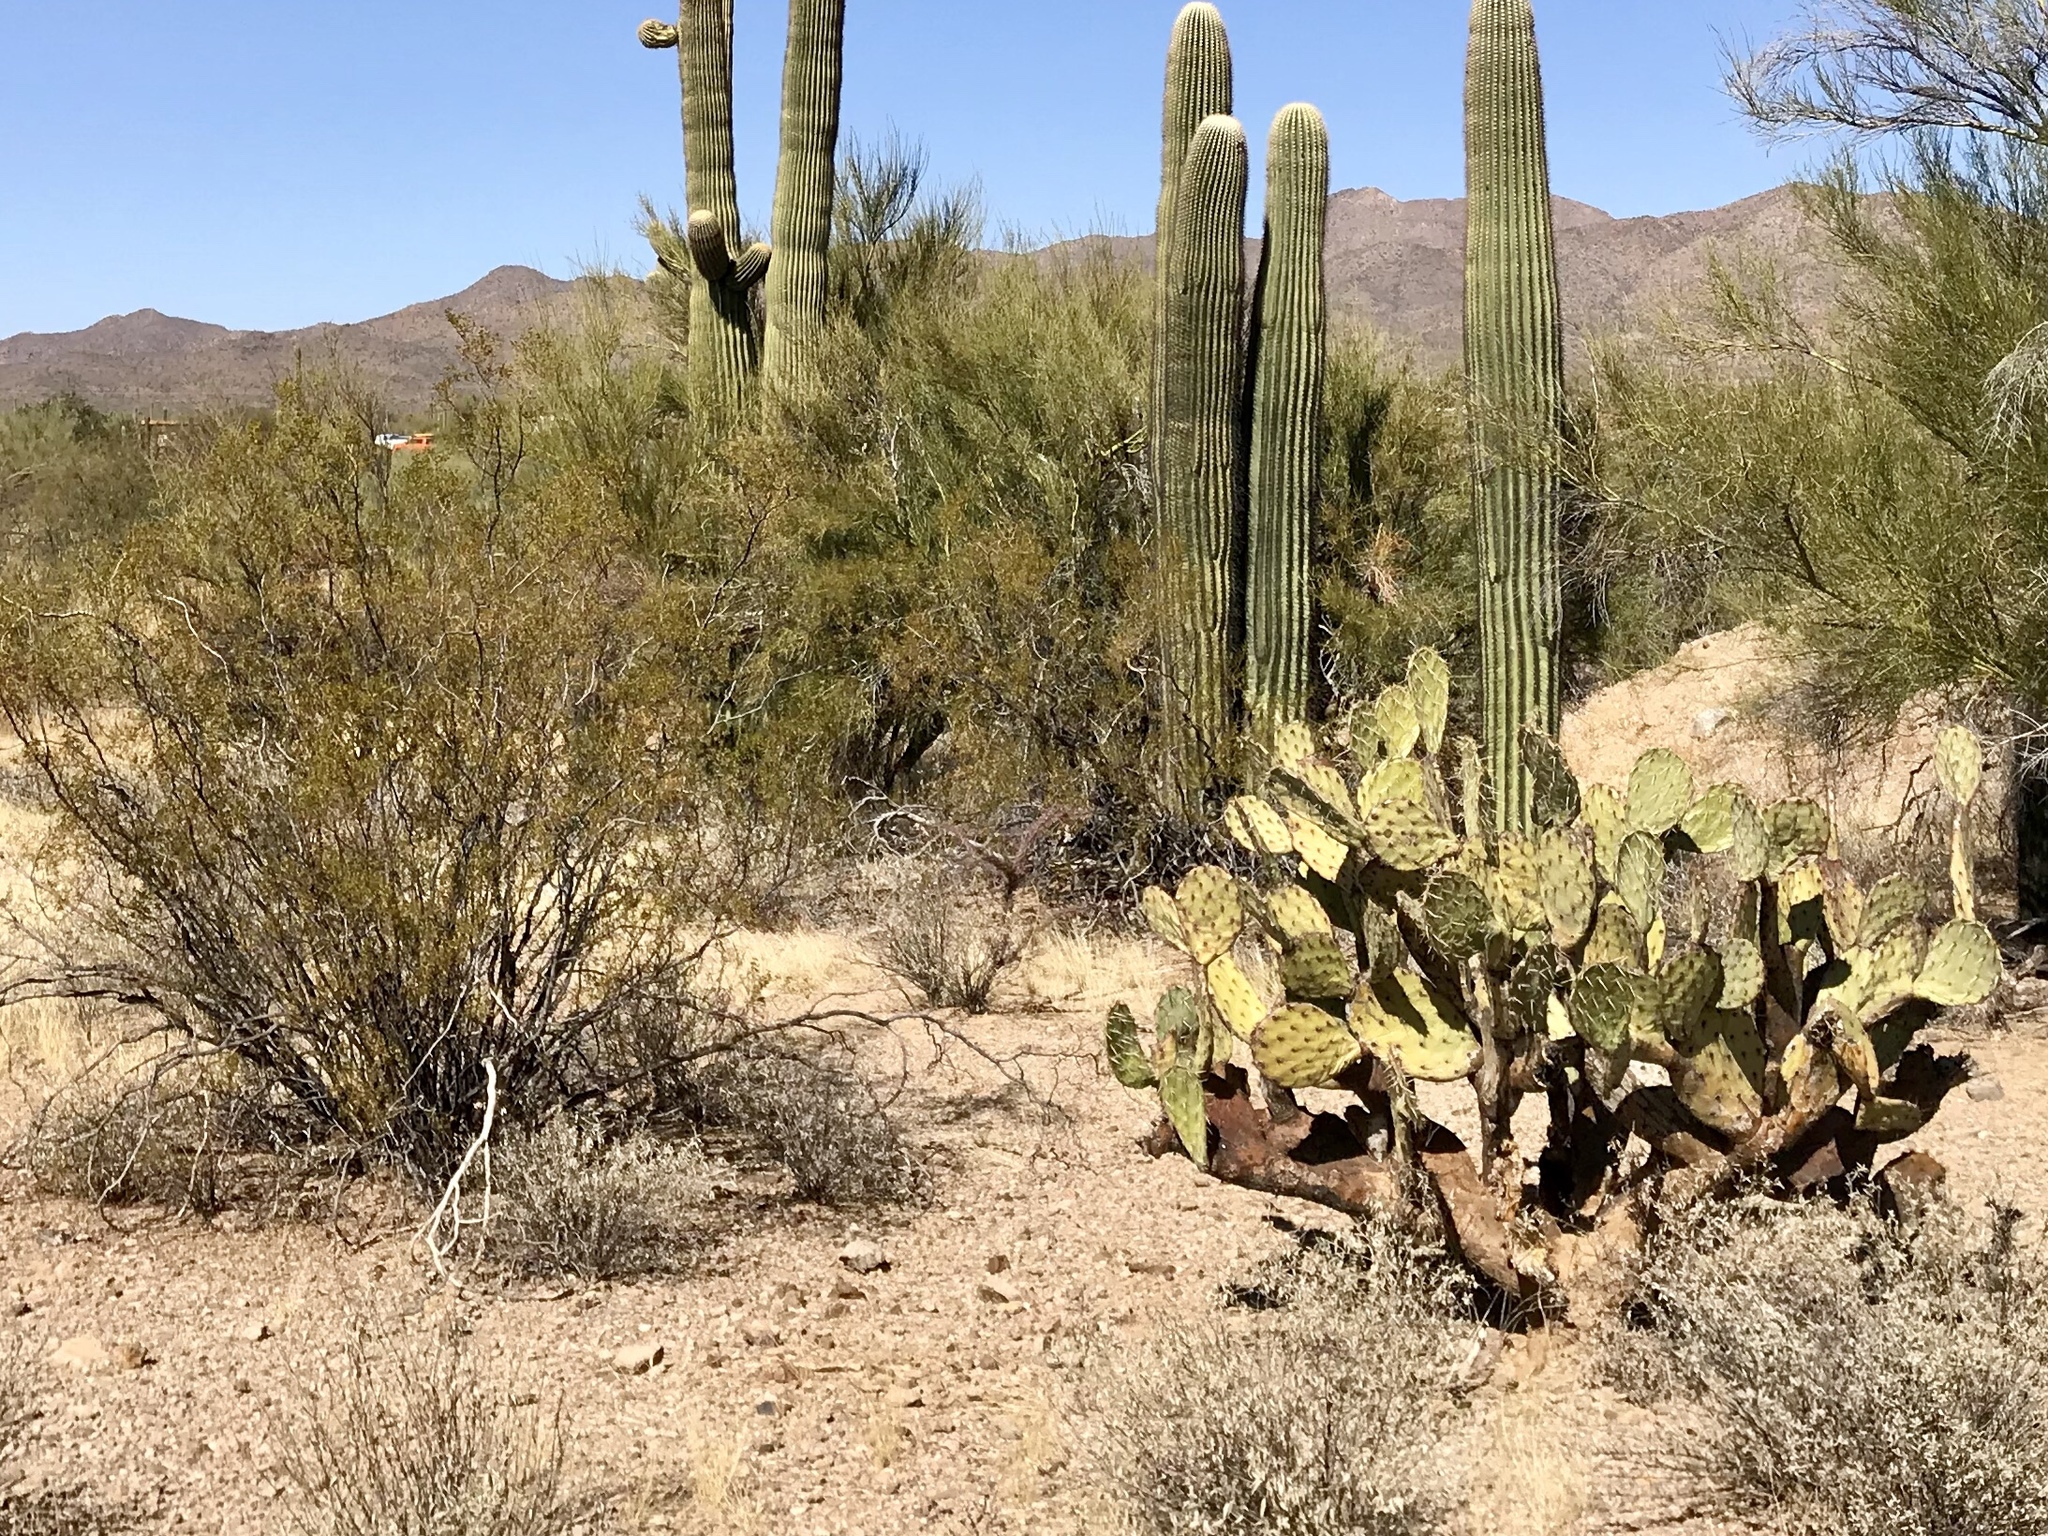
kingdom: Plantae
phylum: Tracheophyta
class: Magnoliopsida
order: Zygophyllales
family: Zygophyllaceae
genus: Larrea
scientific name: Larrea tridentata
